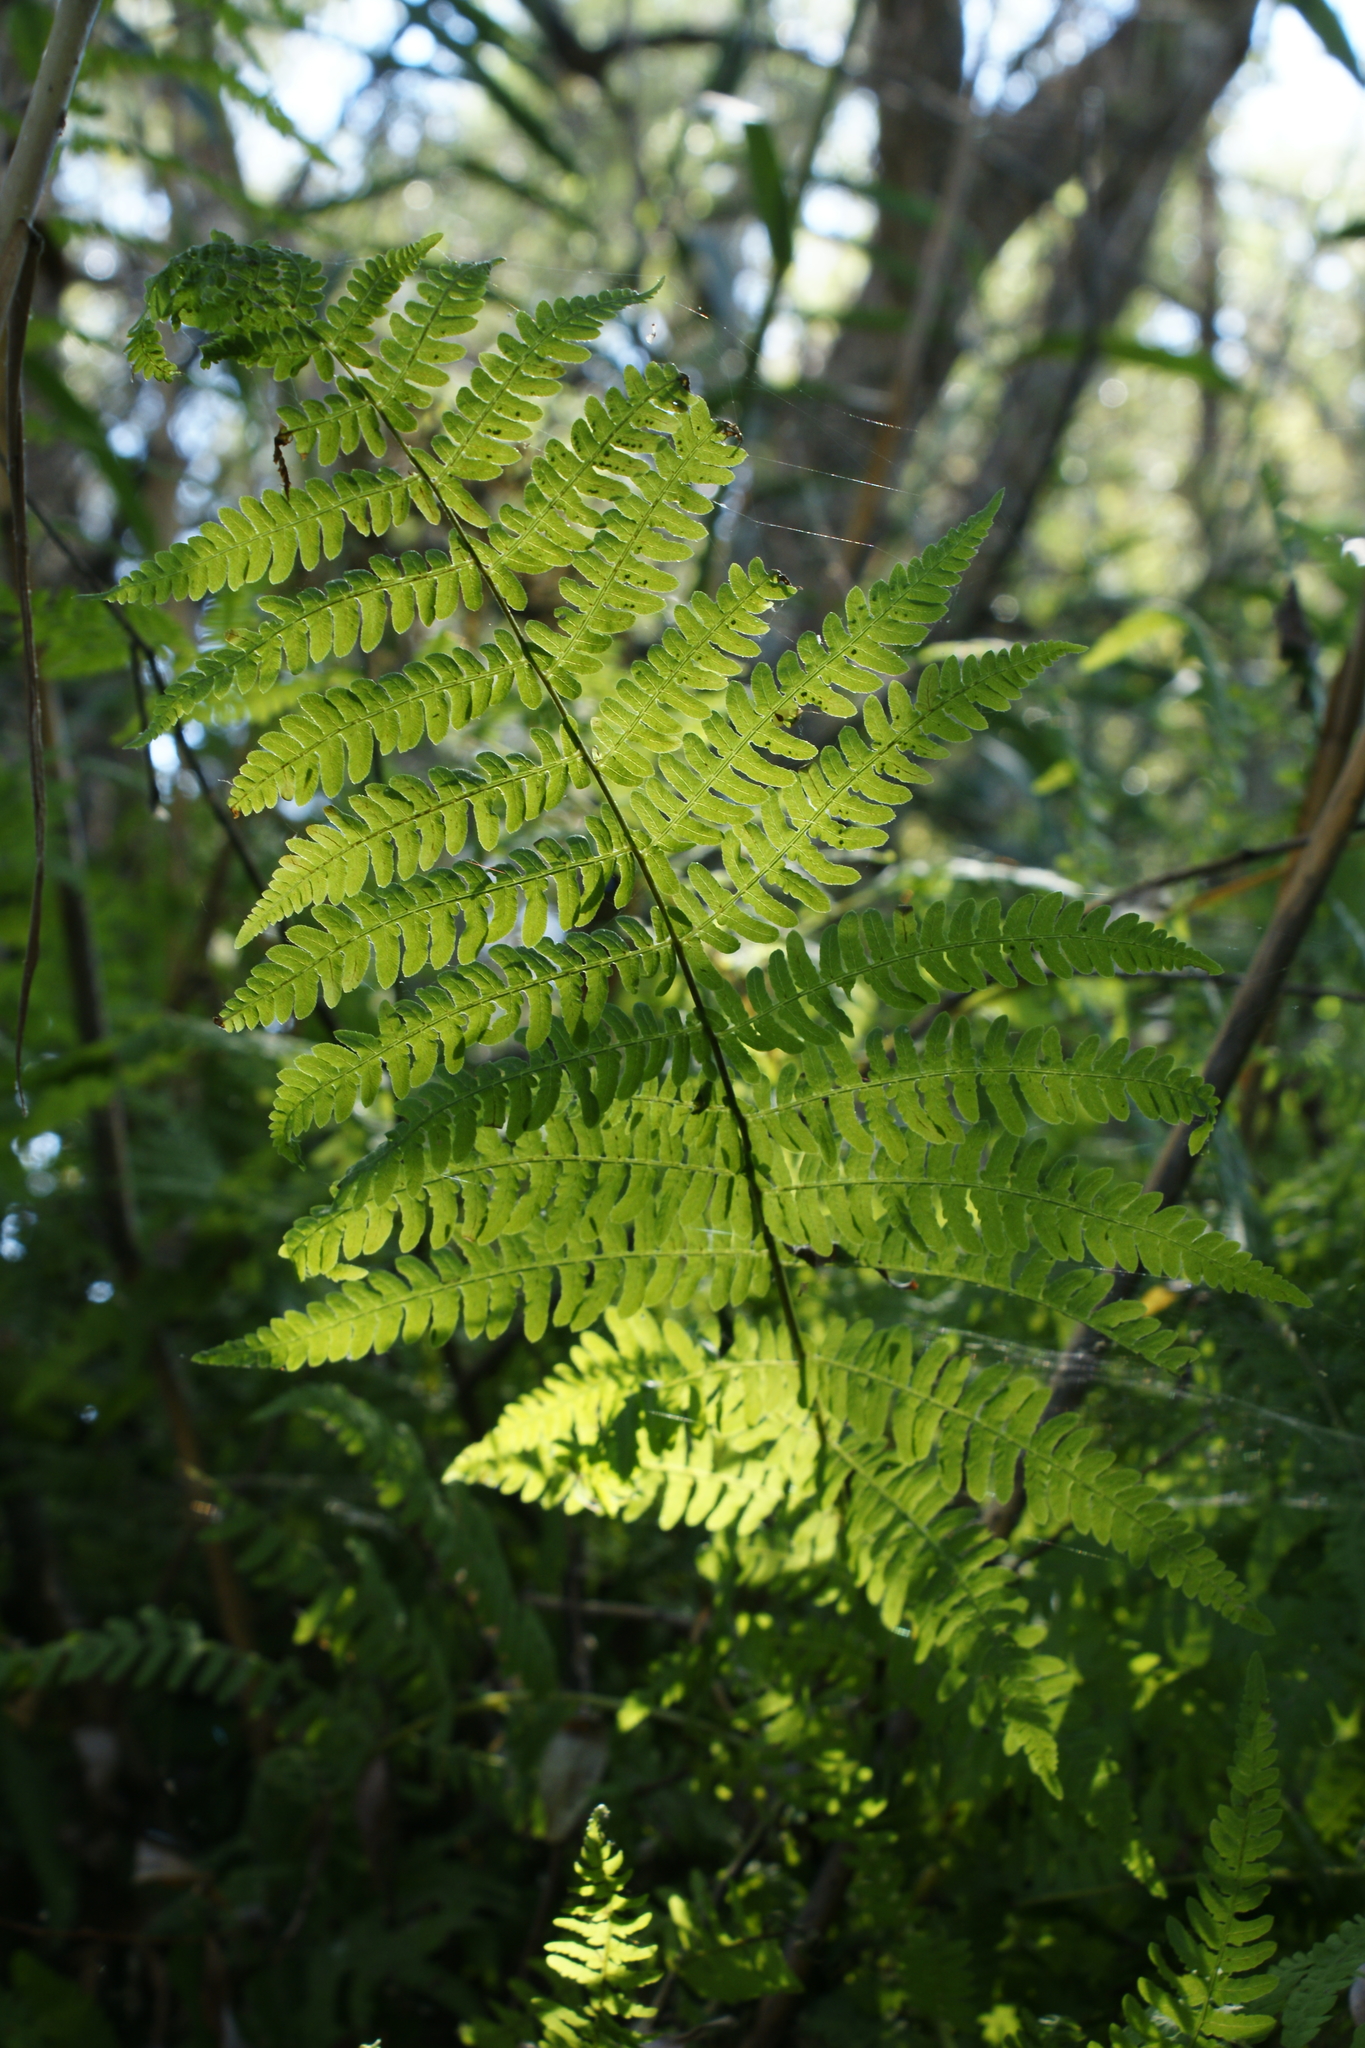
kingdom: Plantae
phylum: Tracheophyta
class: Polypodiopsida
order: Polypodiales
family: Thelypteridaceae
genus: Thelypteris
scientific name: Thelypteris palustris
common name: Marsh fern
